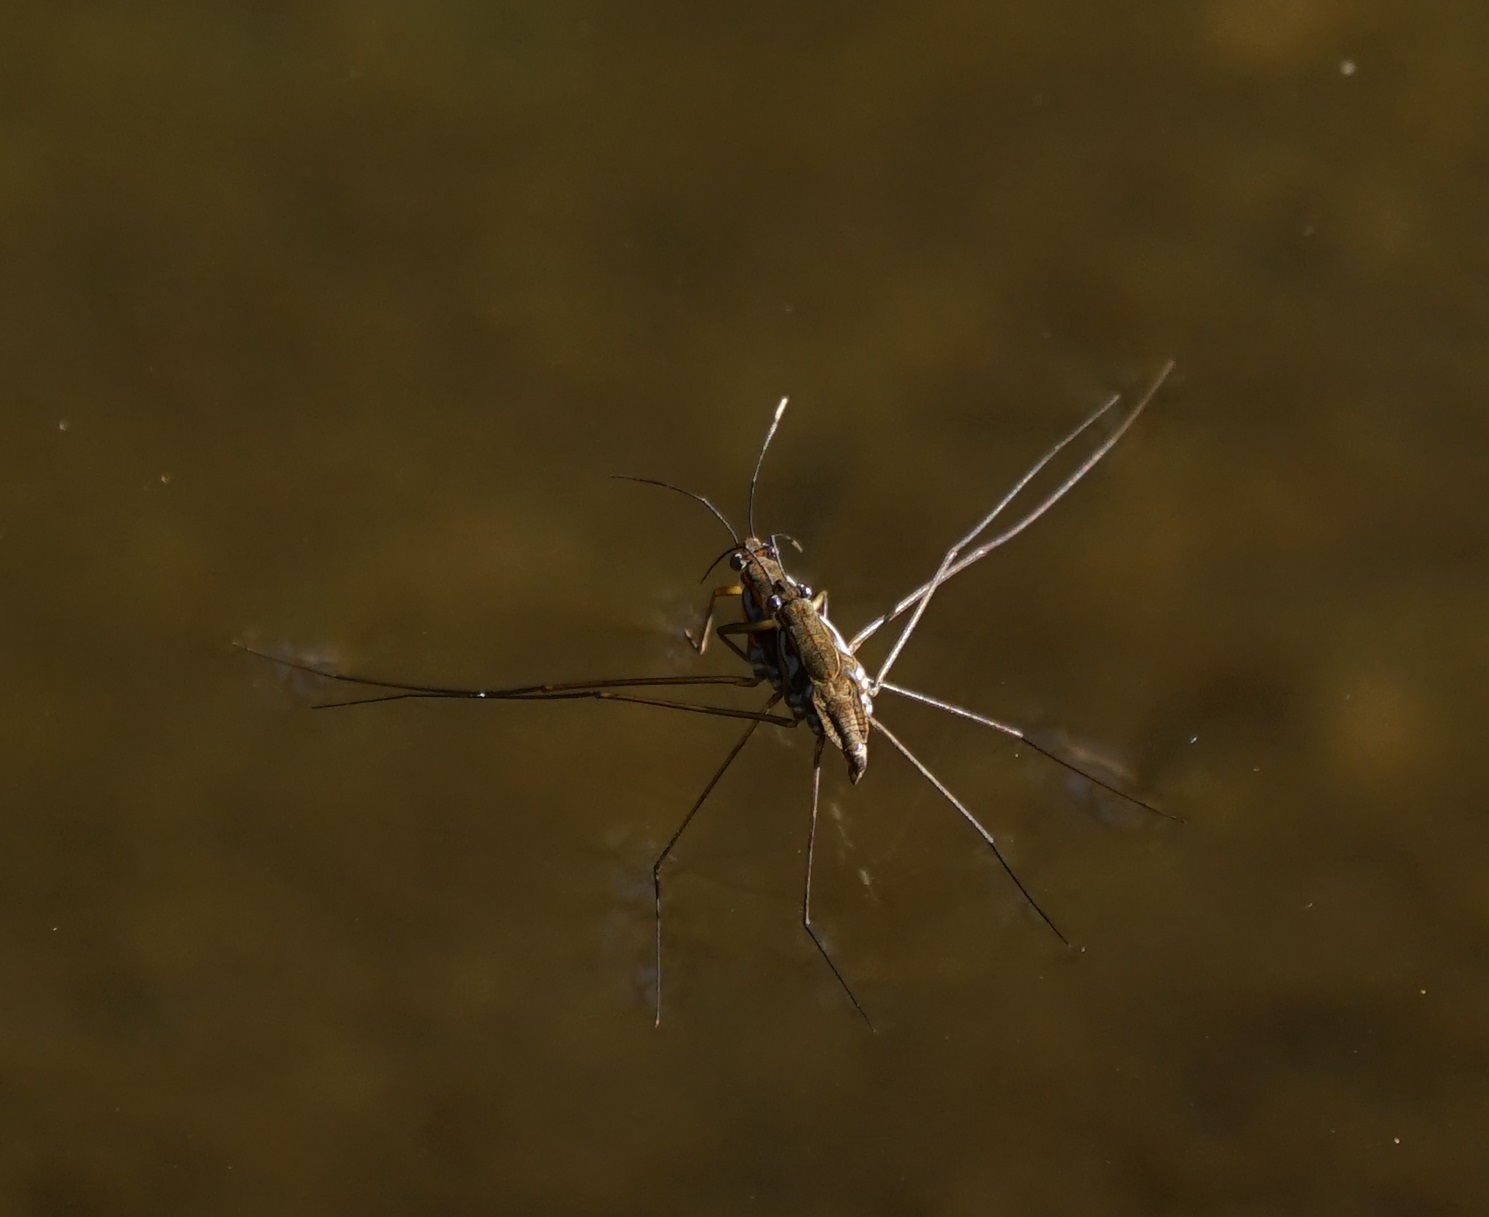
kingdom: Animalia
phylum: Arthropoda
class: Insecta
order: Hemiptera
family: Gerridae
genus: Tenagogerris
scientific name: Tenagogerris euphrosyne
